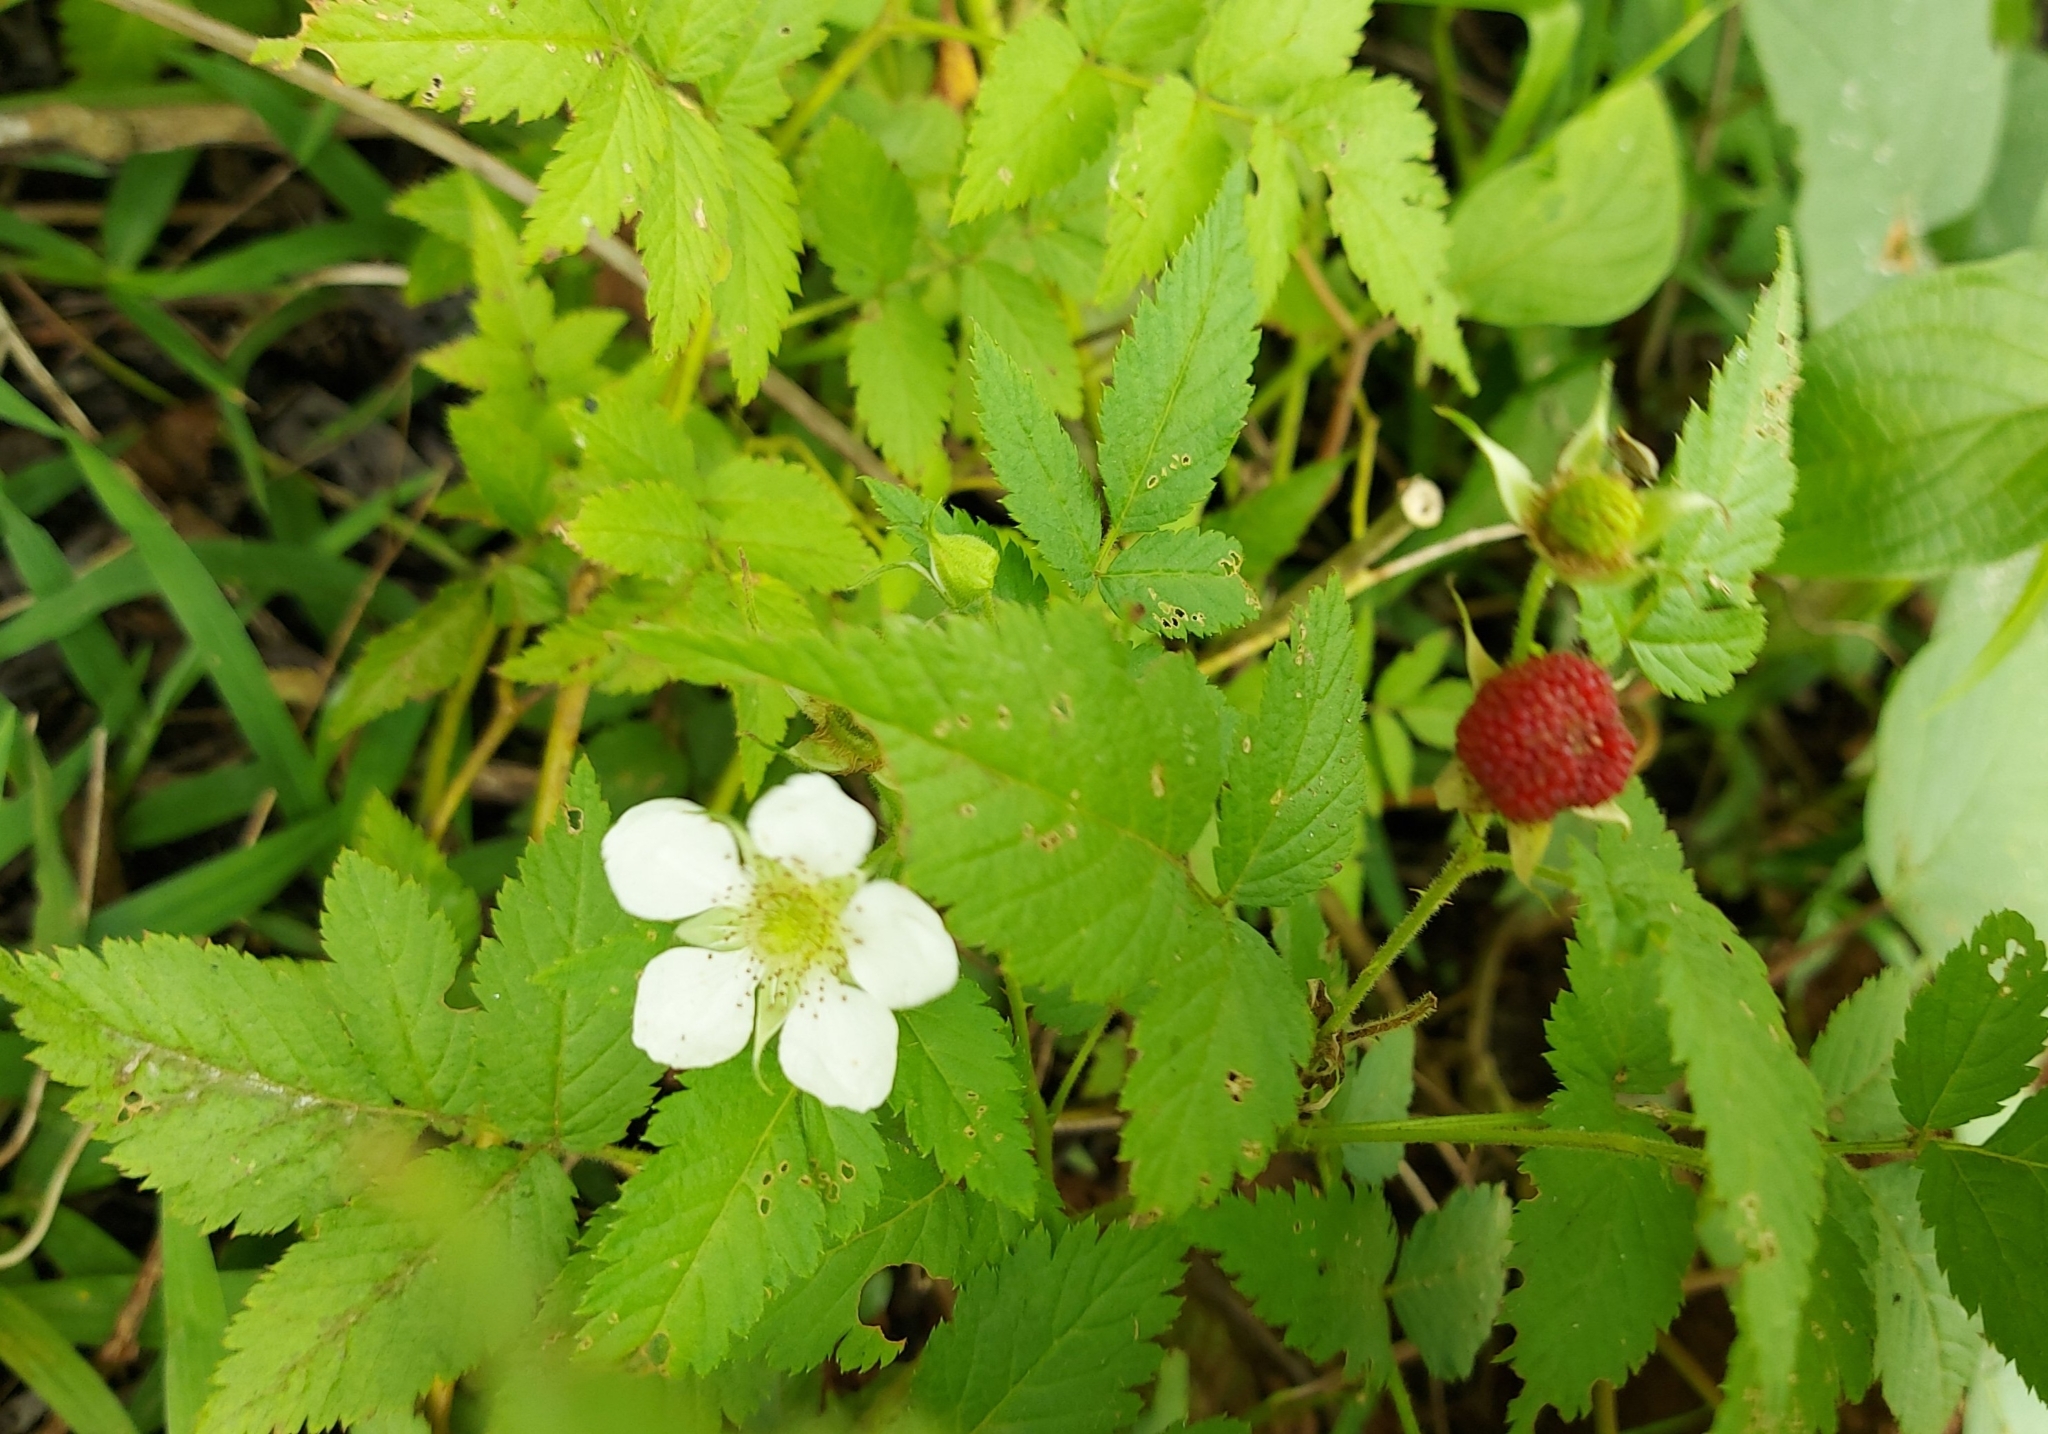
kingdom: Plantae
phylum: Tracheophyta
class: Magnoliopsida
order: Rosales
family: Rosaceae
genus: Rubus
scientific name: Rubus rosifolius
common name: Roseleaf raspberry
